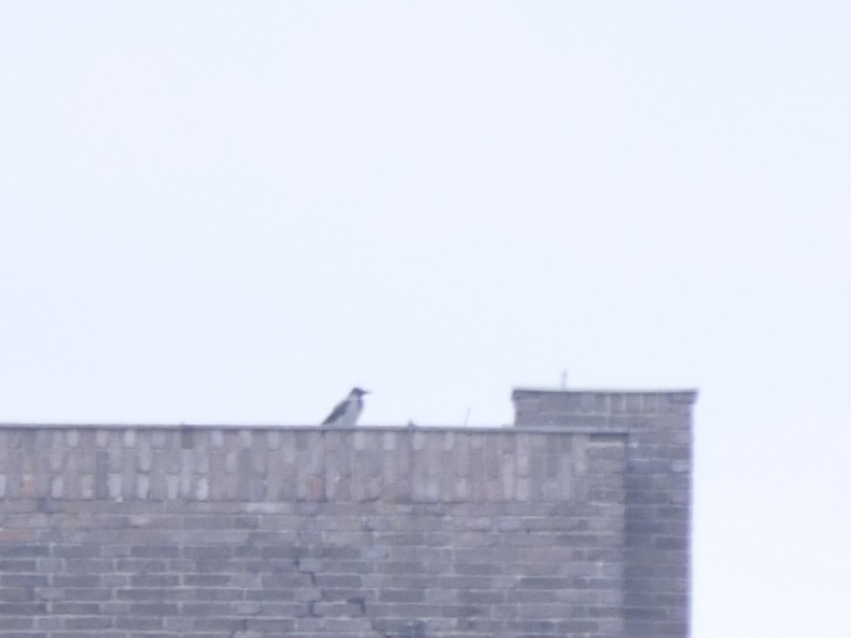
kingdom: Animalia
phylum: Chordata
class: Aves
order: Passeriformes
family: Corvidae
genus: Corvus
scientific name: Corvus cornix
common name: Hooded crow
